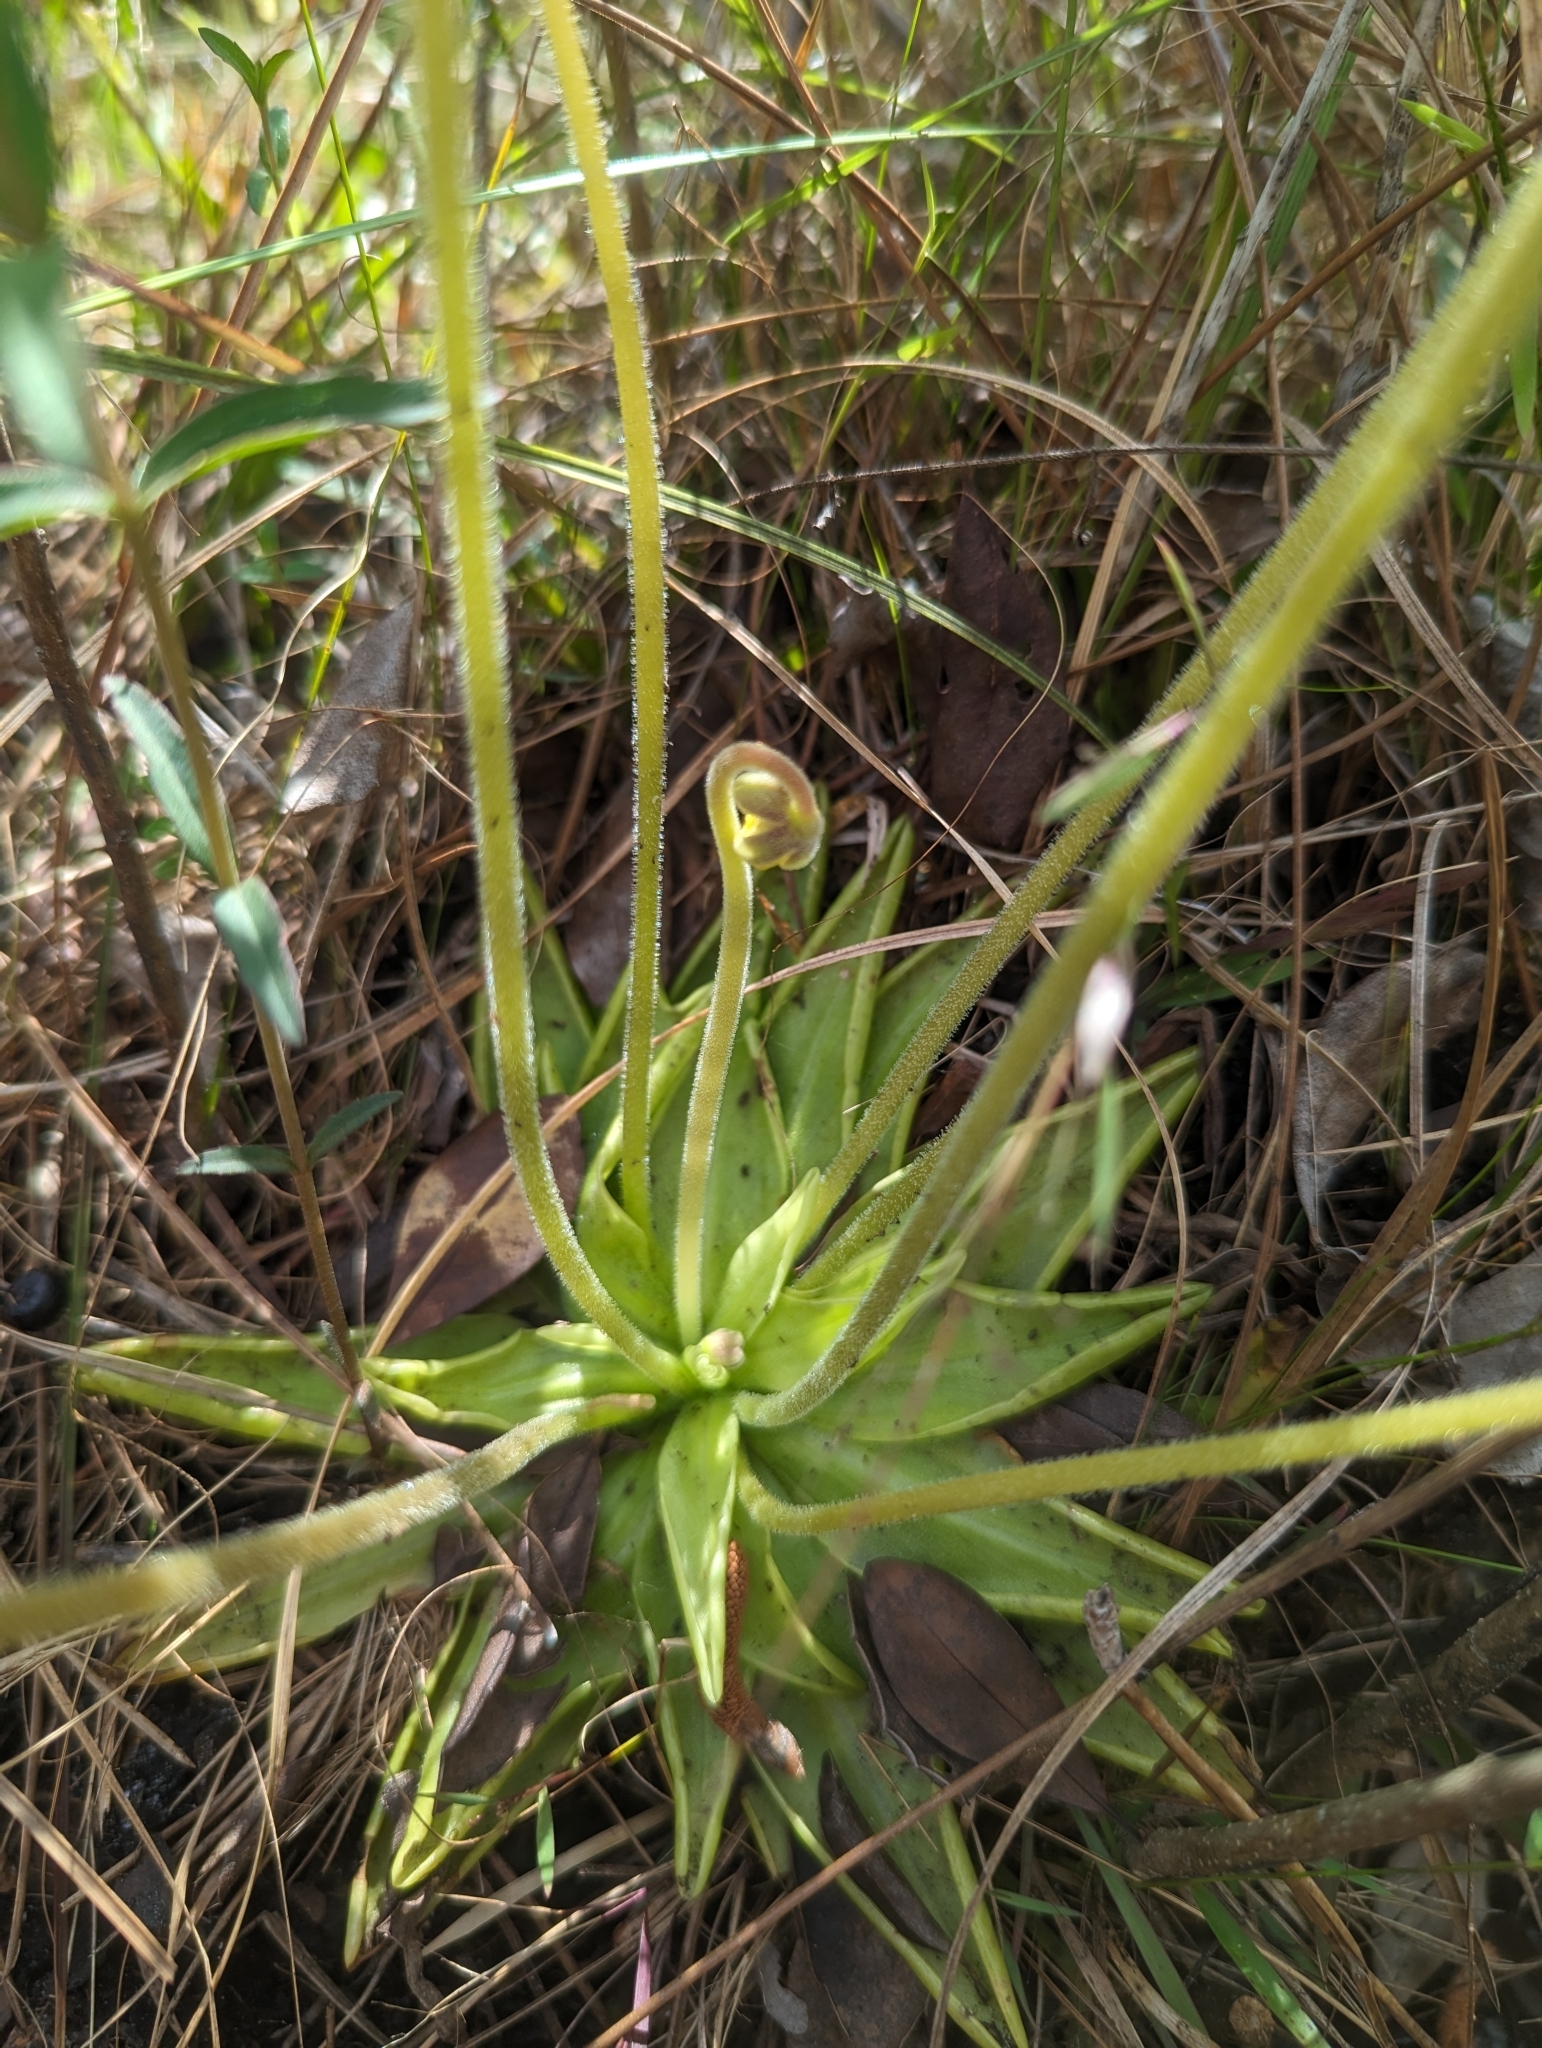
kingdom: Plantae
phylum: Tracheophyta
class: Magnoliopsida
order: Lamiales
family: Lentibulariaceae
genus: Pinguicula
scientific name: Pinguicula lutea
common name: Yellow butterwort
